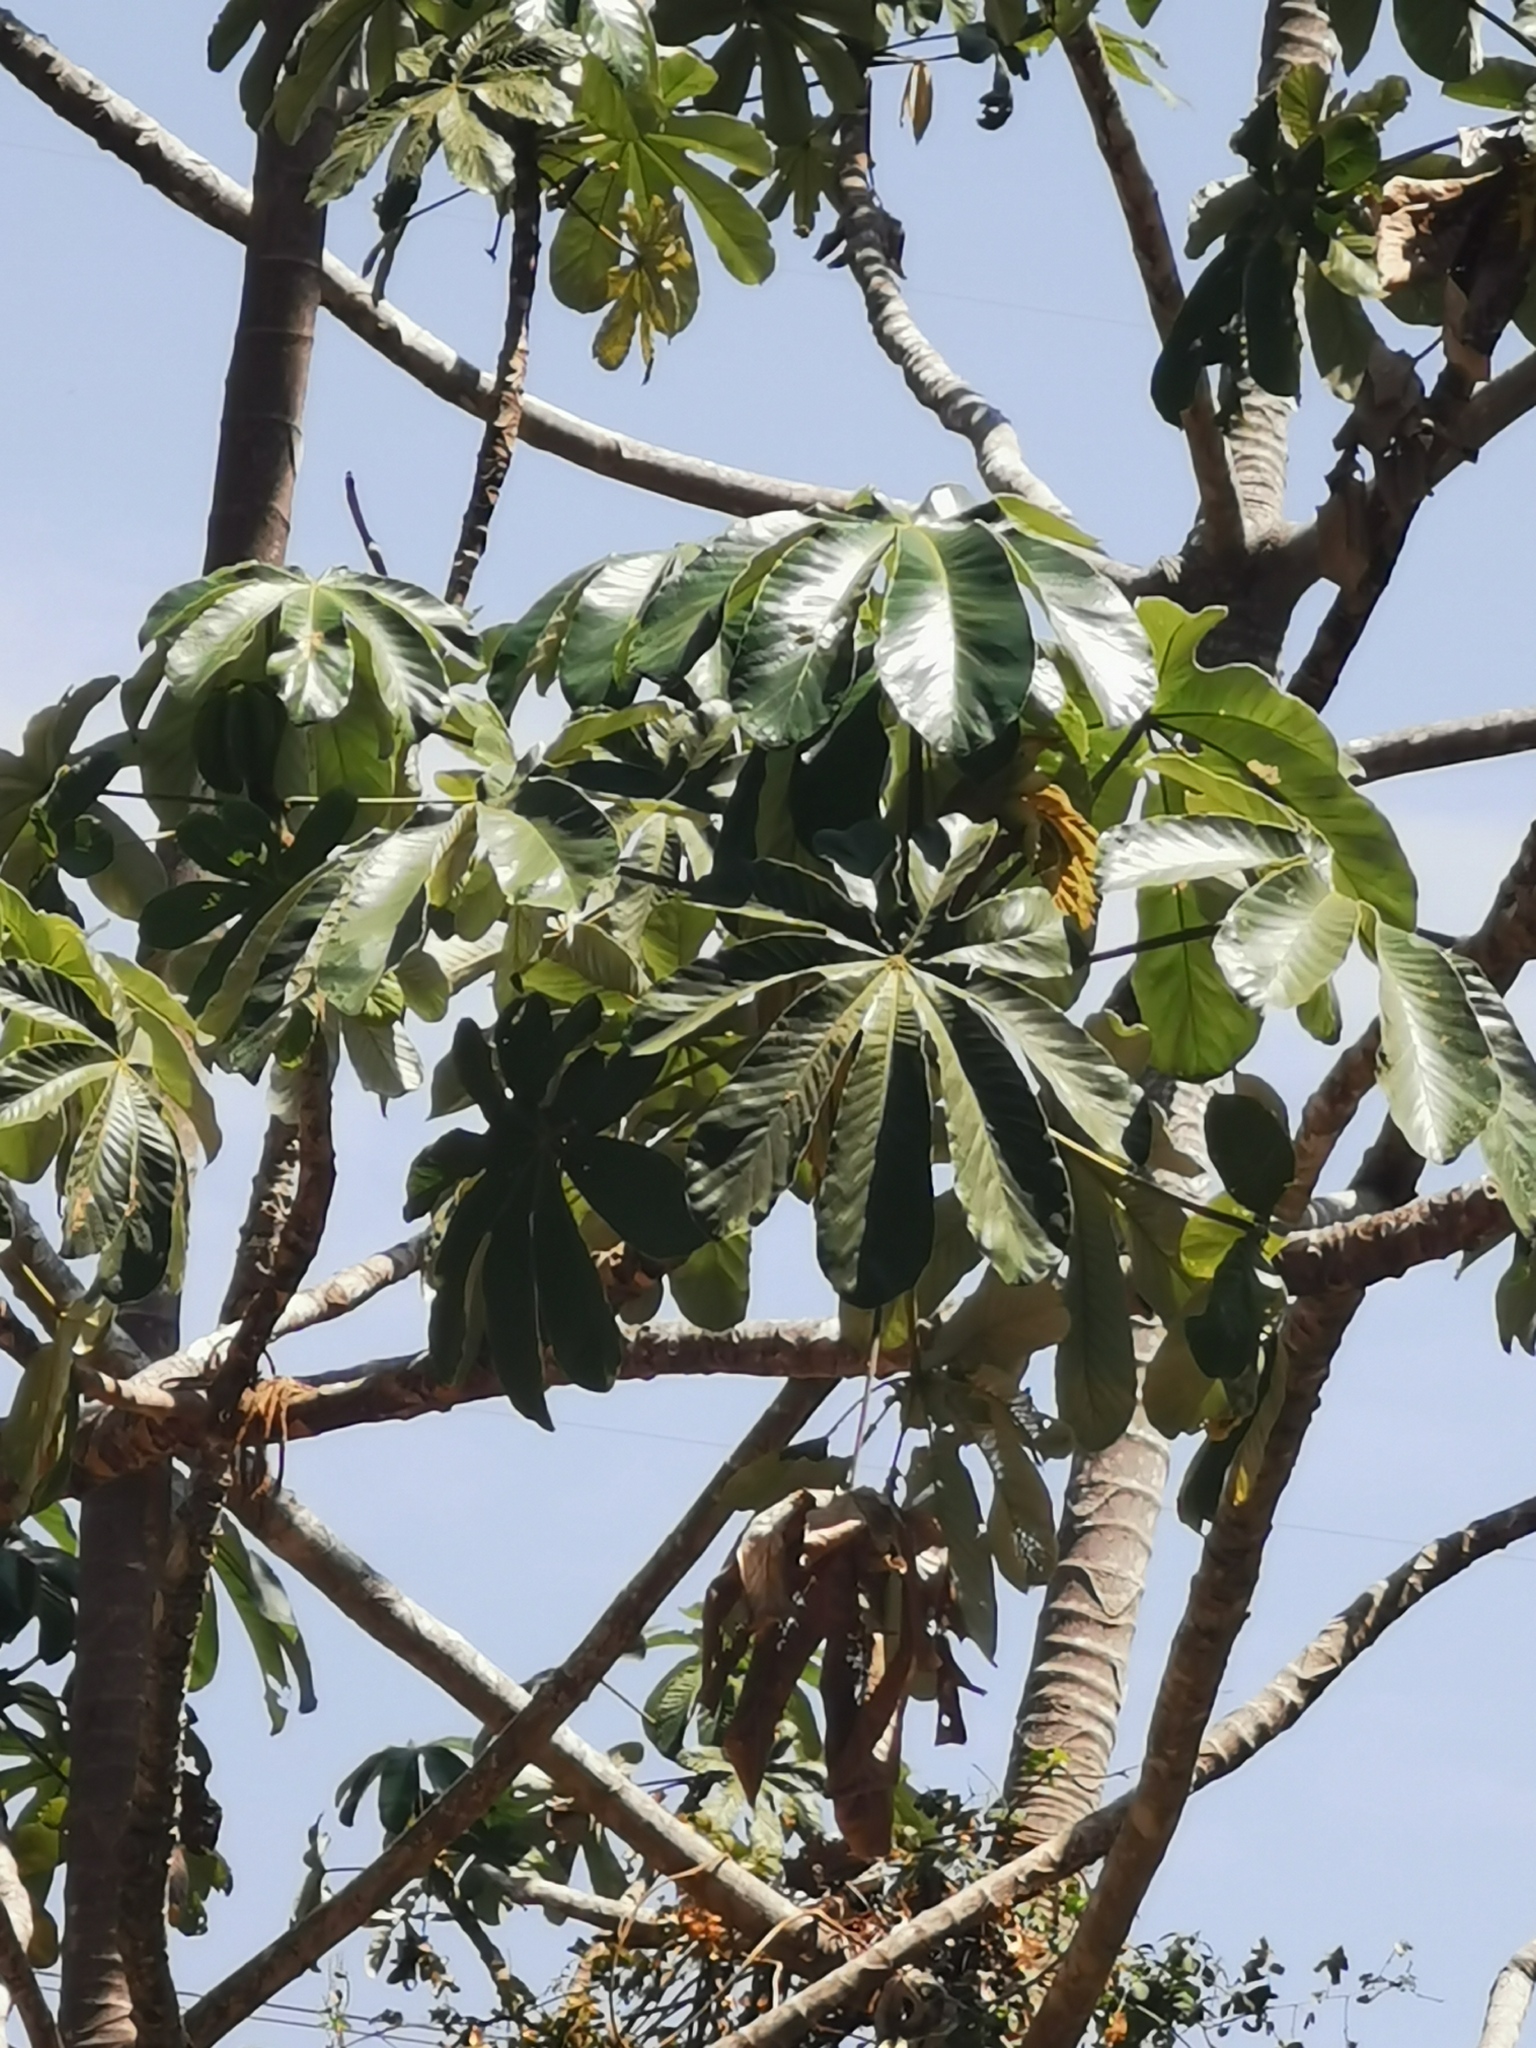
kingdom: Plantae
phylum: Tracheophyta
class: Magnoliopsida
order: Rosales
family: Urticaceae
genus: Cecropia
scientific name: Cecropia obtusifolia
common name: Trumpet tree
